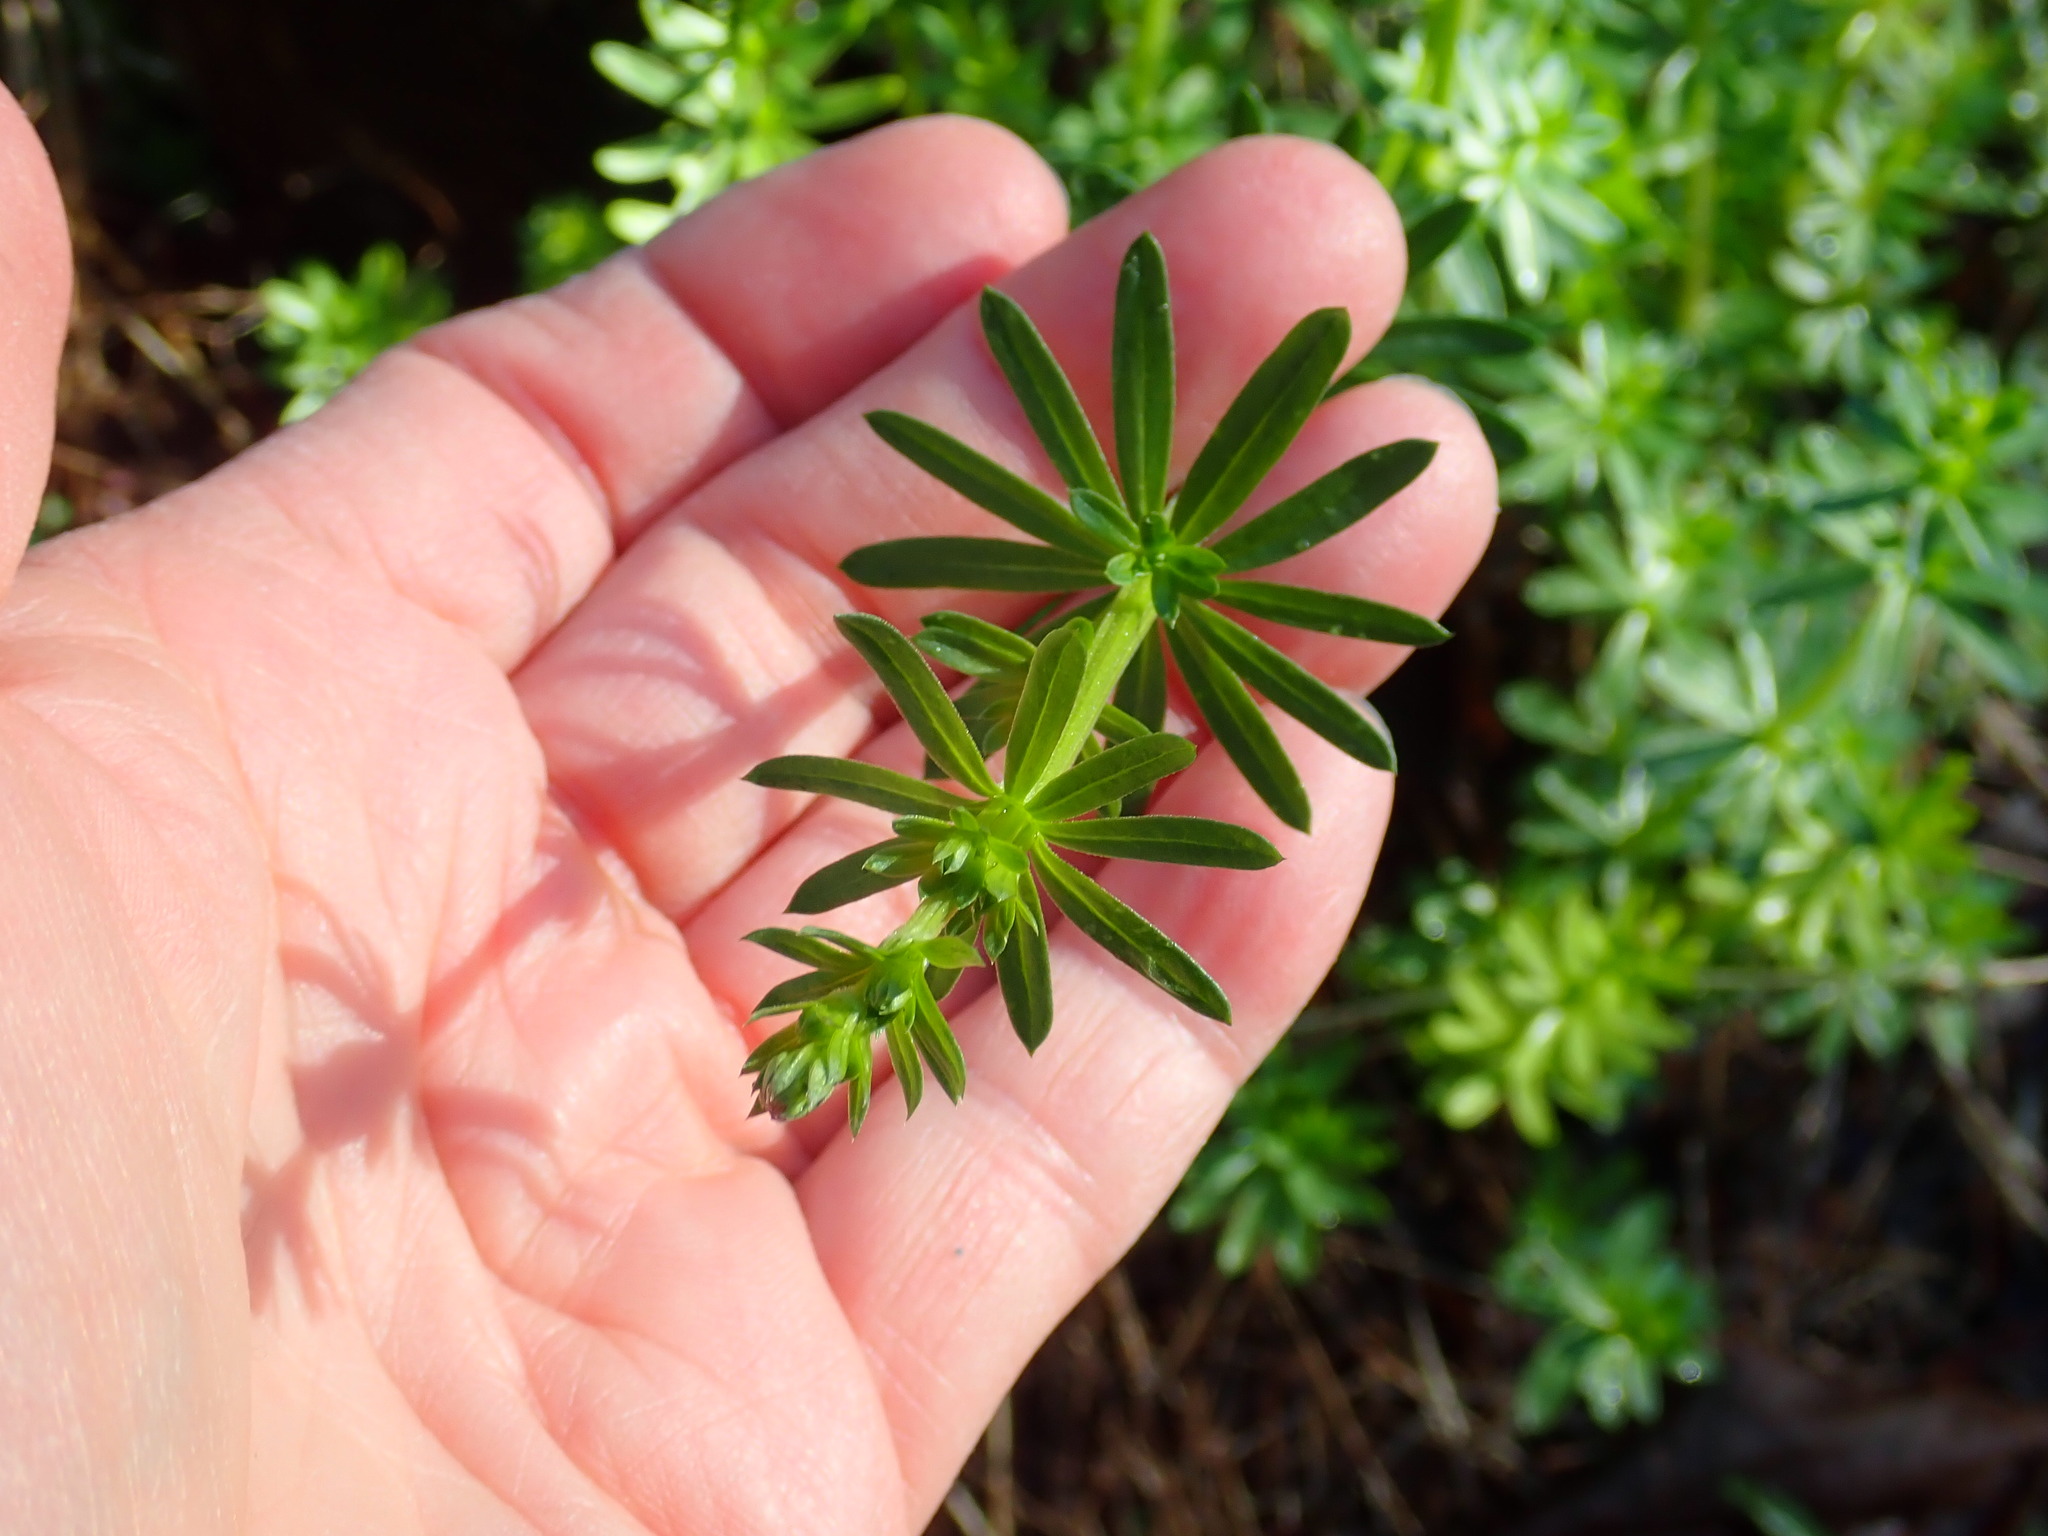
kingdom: Plantae
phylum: Tracheophyta
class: Magnoliopsida
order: Gentianales
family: Rubiaceae
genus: Galium
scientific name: Galium
